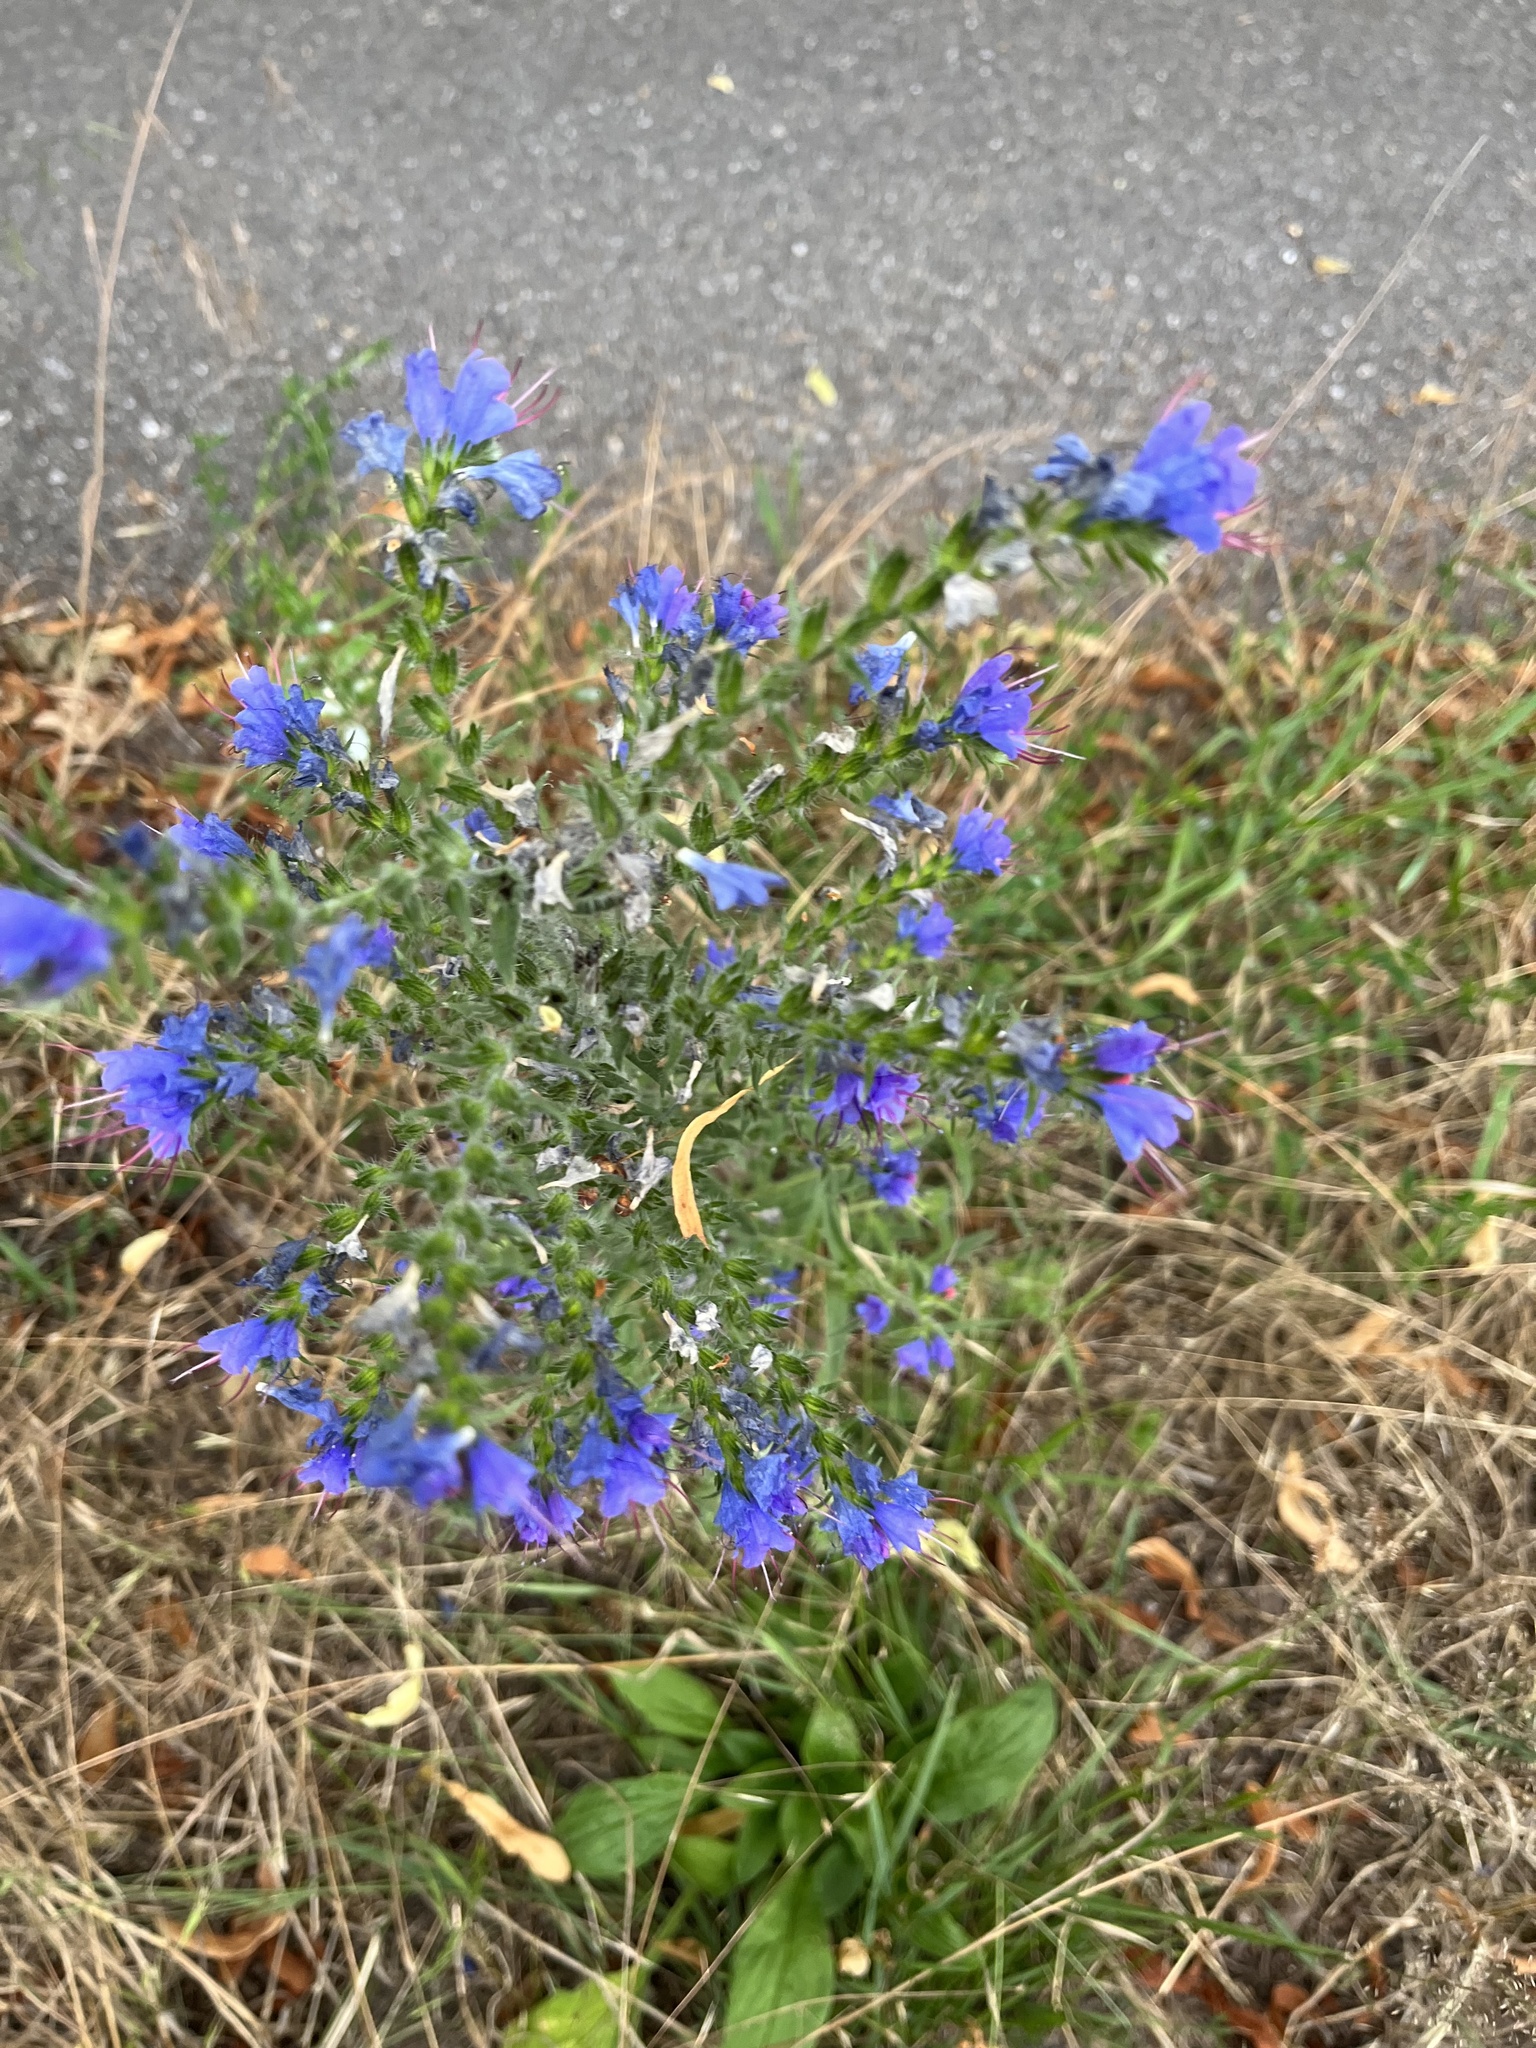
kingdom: Plantae
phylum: Tracheophyta
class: Magnoliopsida
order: Boraginales
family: Boraginaceae
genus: Echium
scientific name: Echium vulgare
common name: Common viper's bugloss
